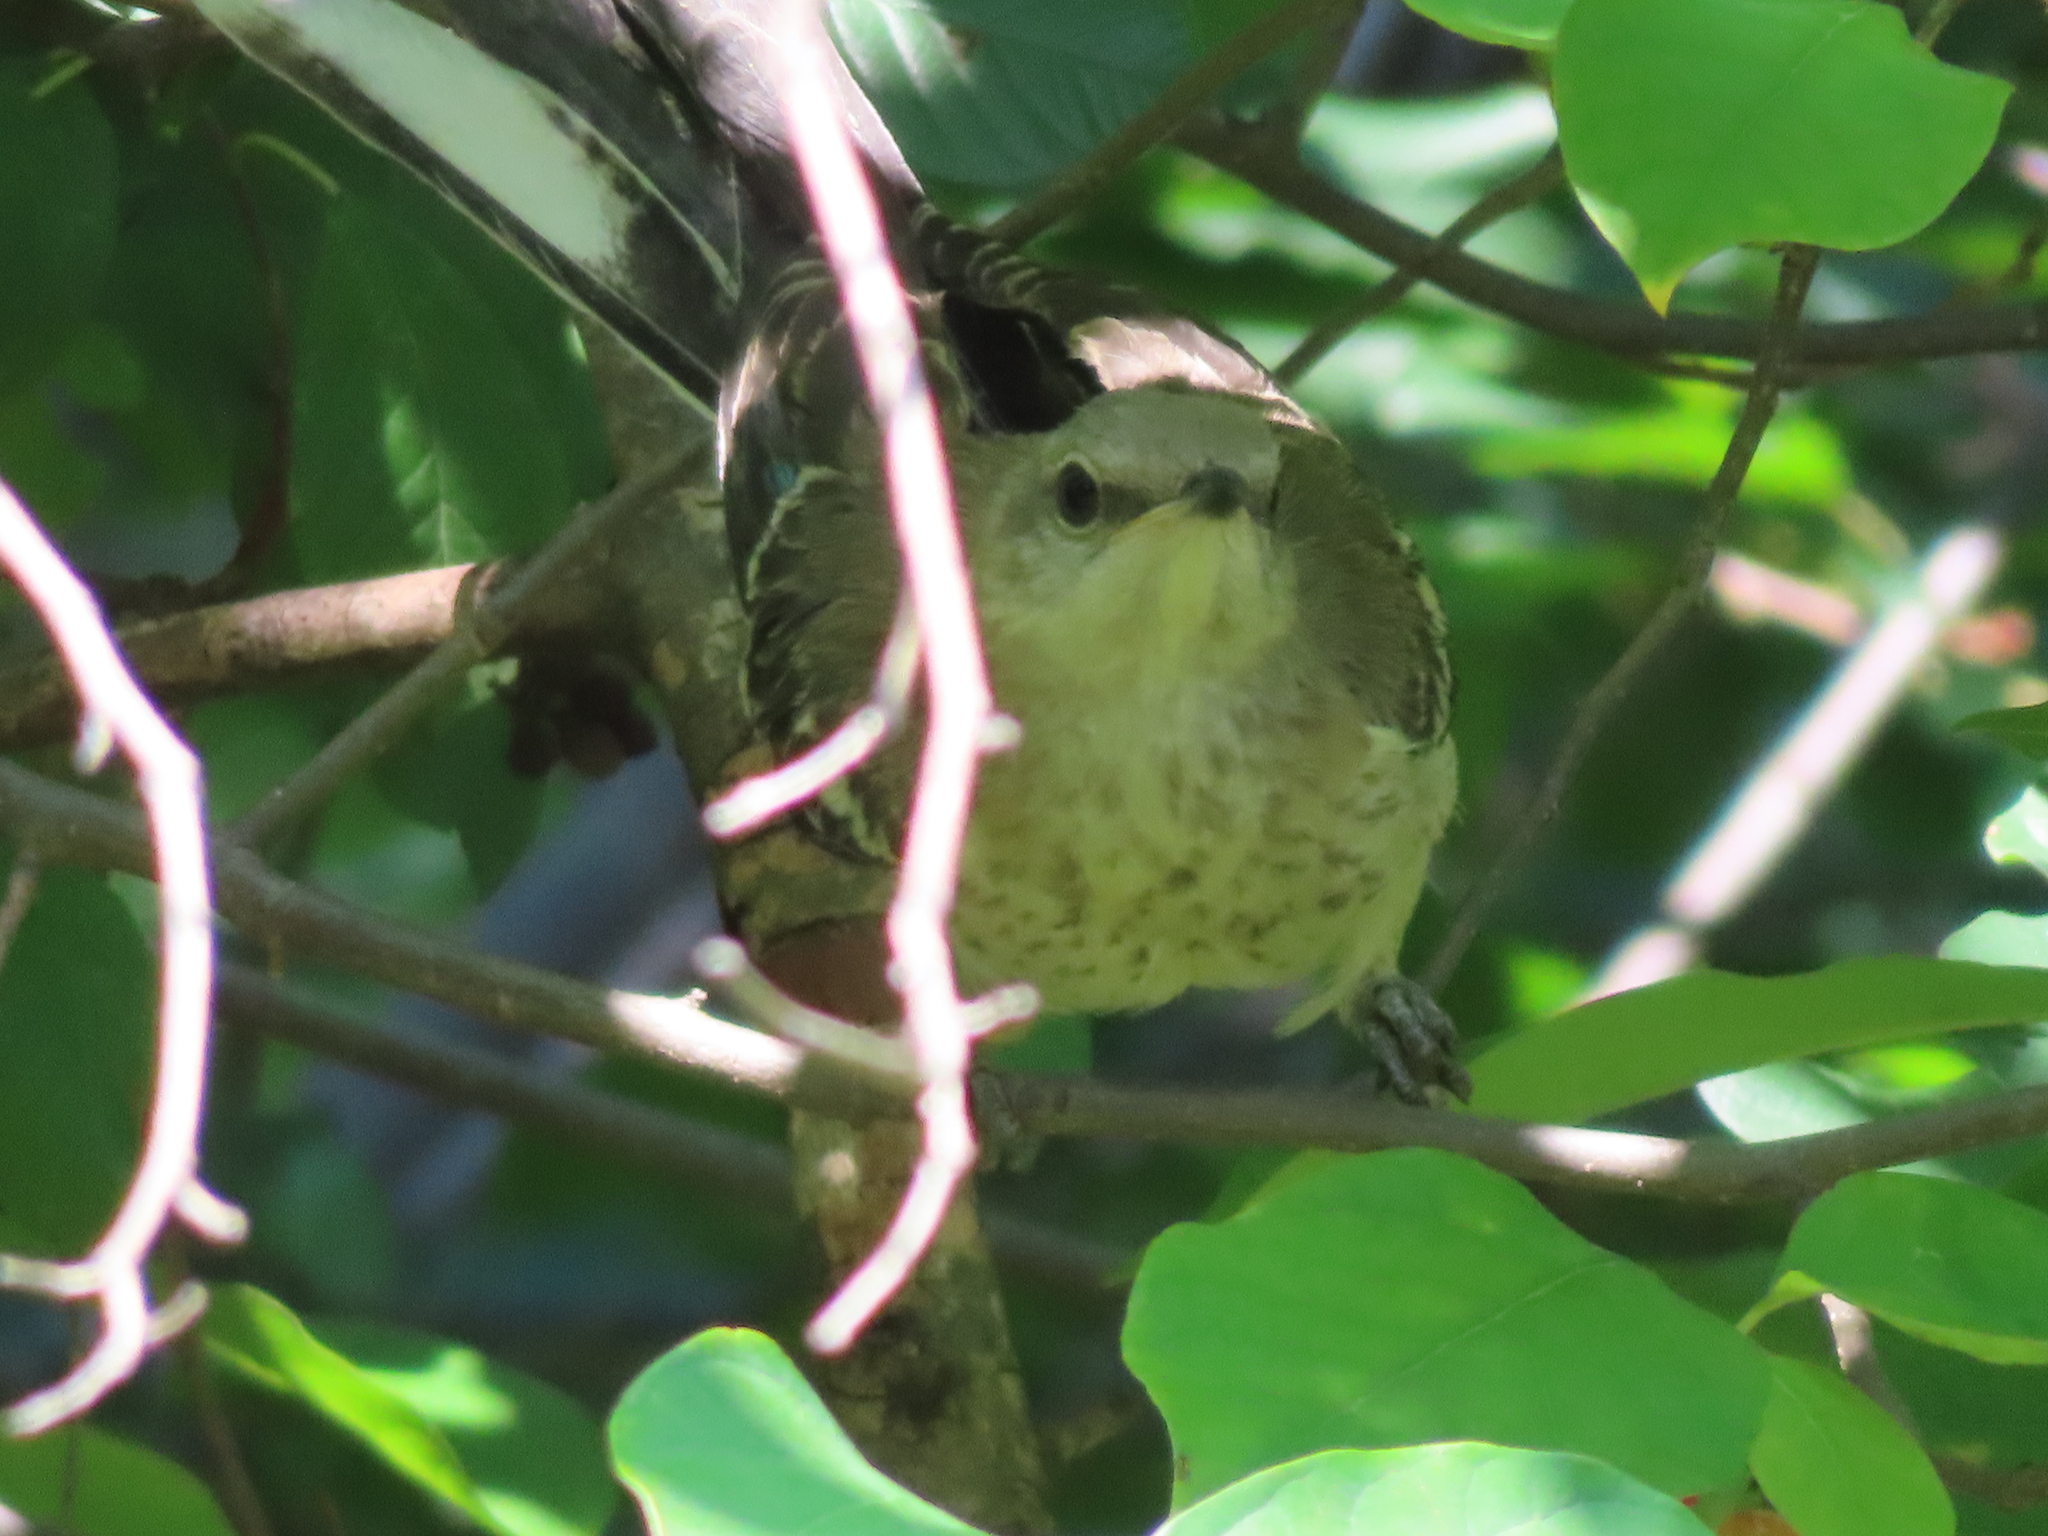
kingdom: Animalia
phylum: Chordata
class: Aves
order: Passeriformes
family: Mimidae
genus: Mimus
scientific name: Mimus polyglottos
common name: Northern mockingbird
